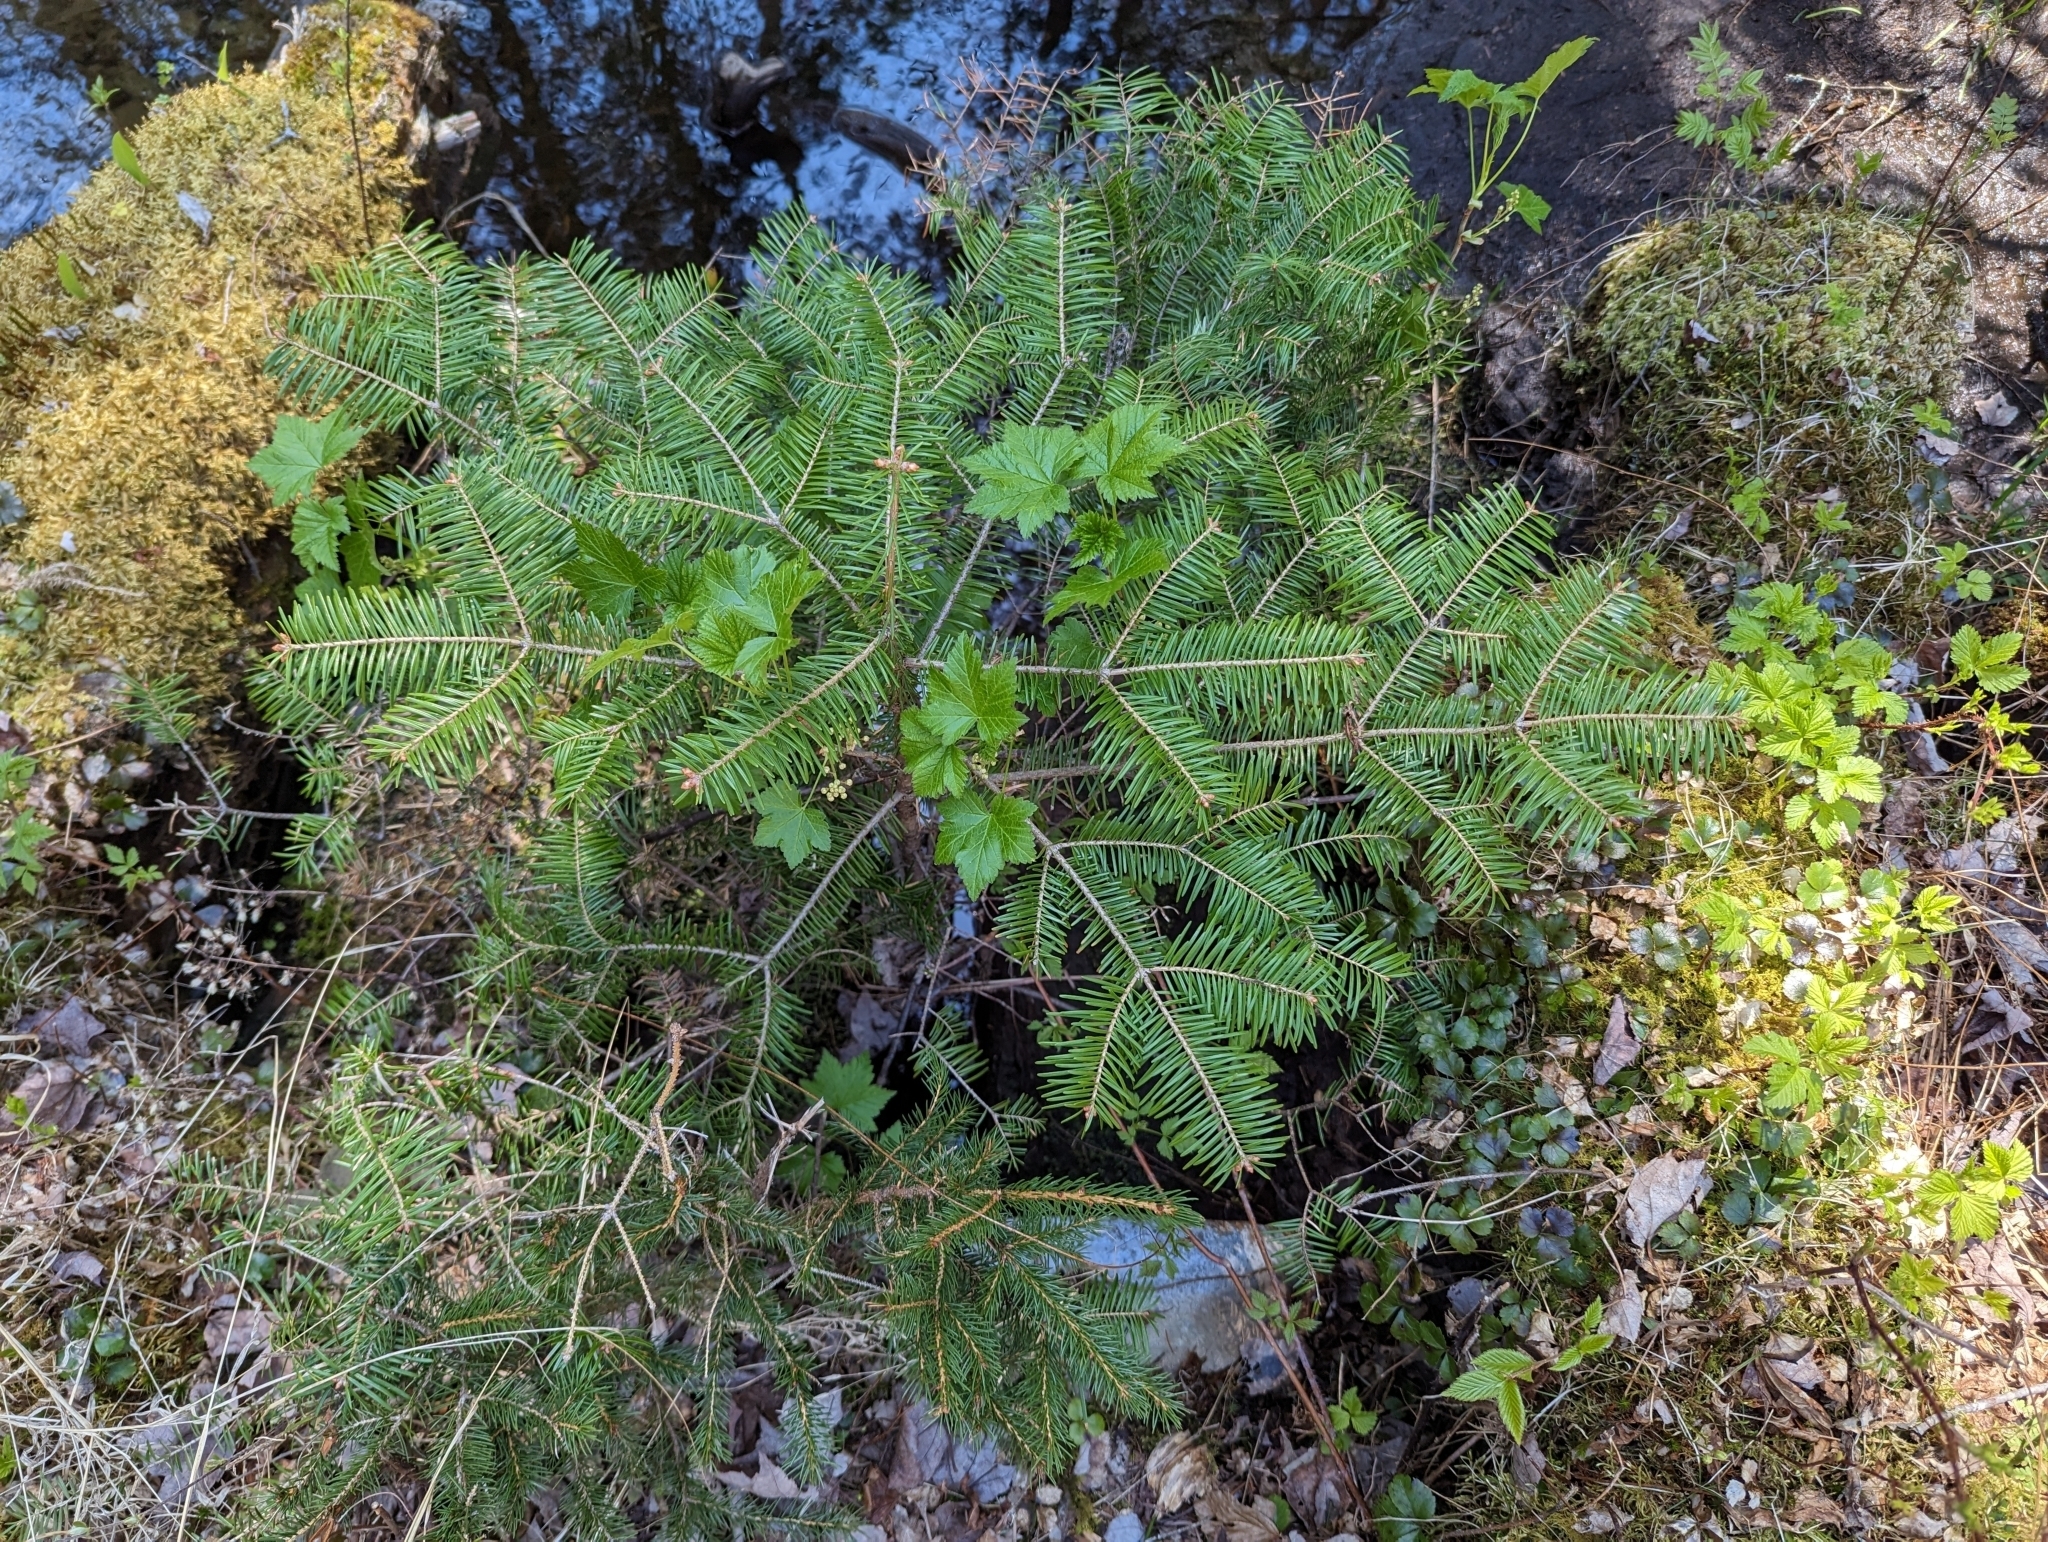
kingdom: Plantae
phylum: Tracheophyta
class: Pinopsida
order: Pinales
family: Pinaceae
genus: Abies
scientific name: Abies balsamea
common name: Balsam fir
